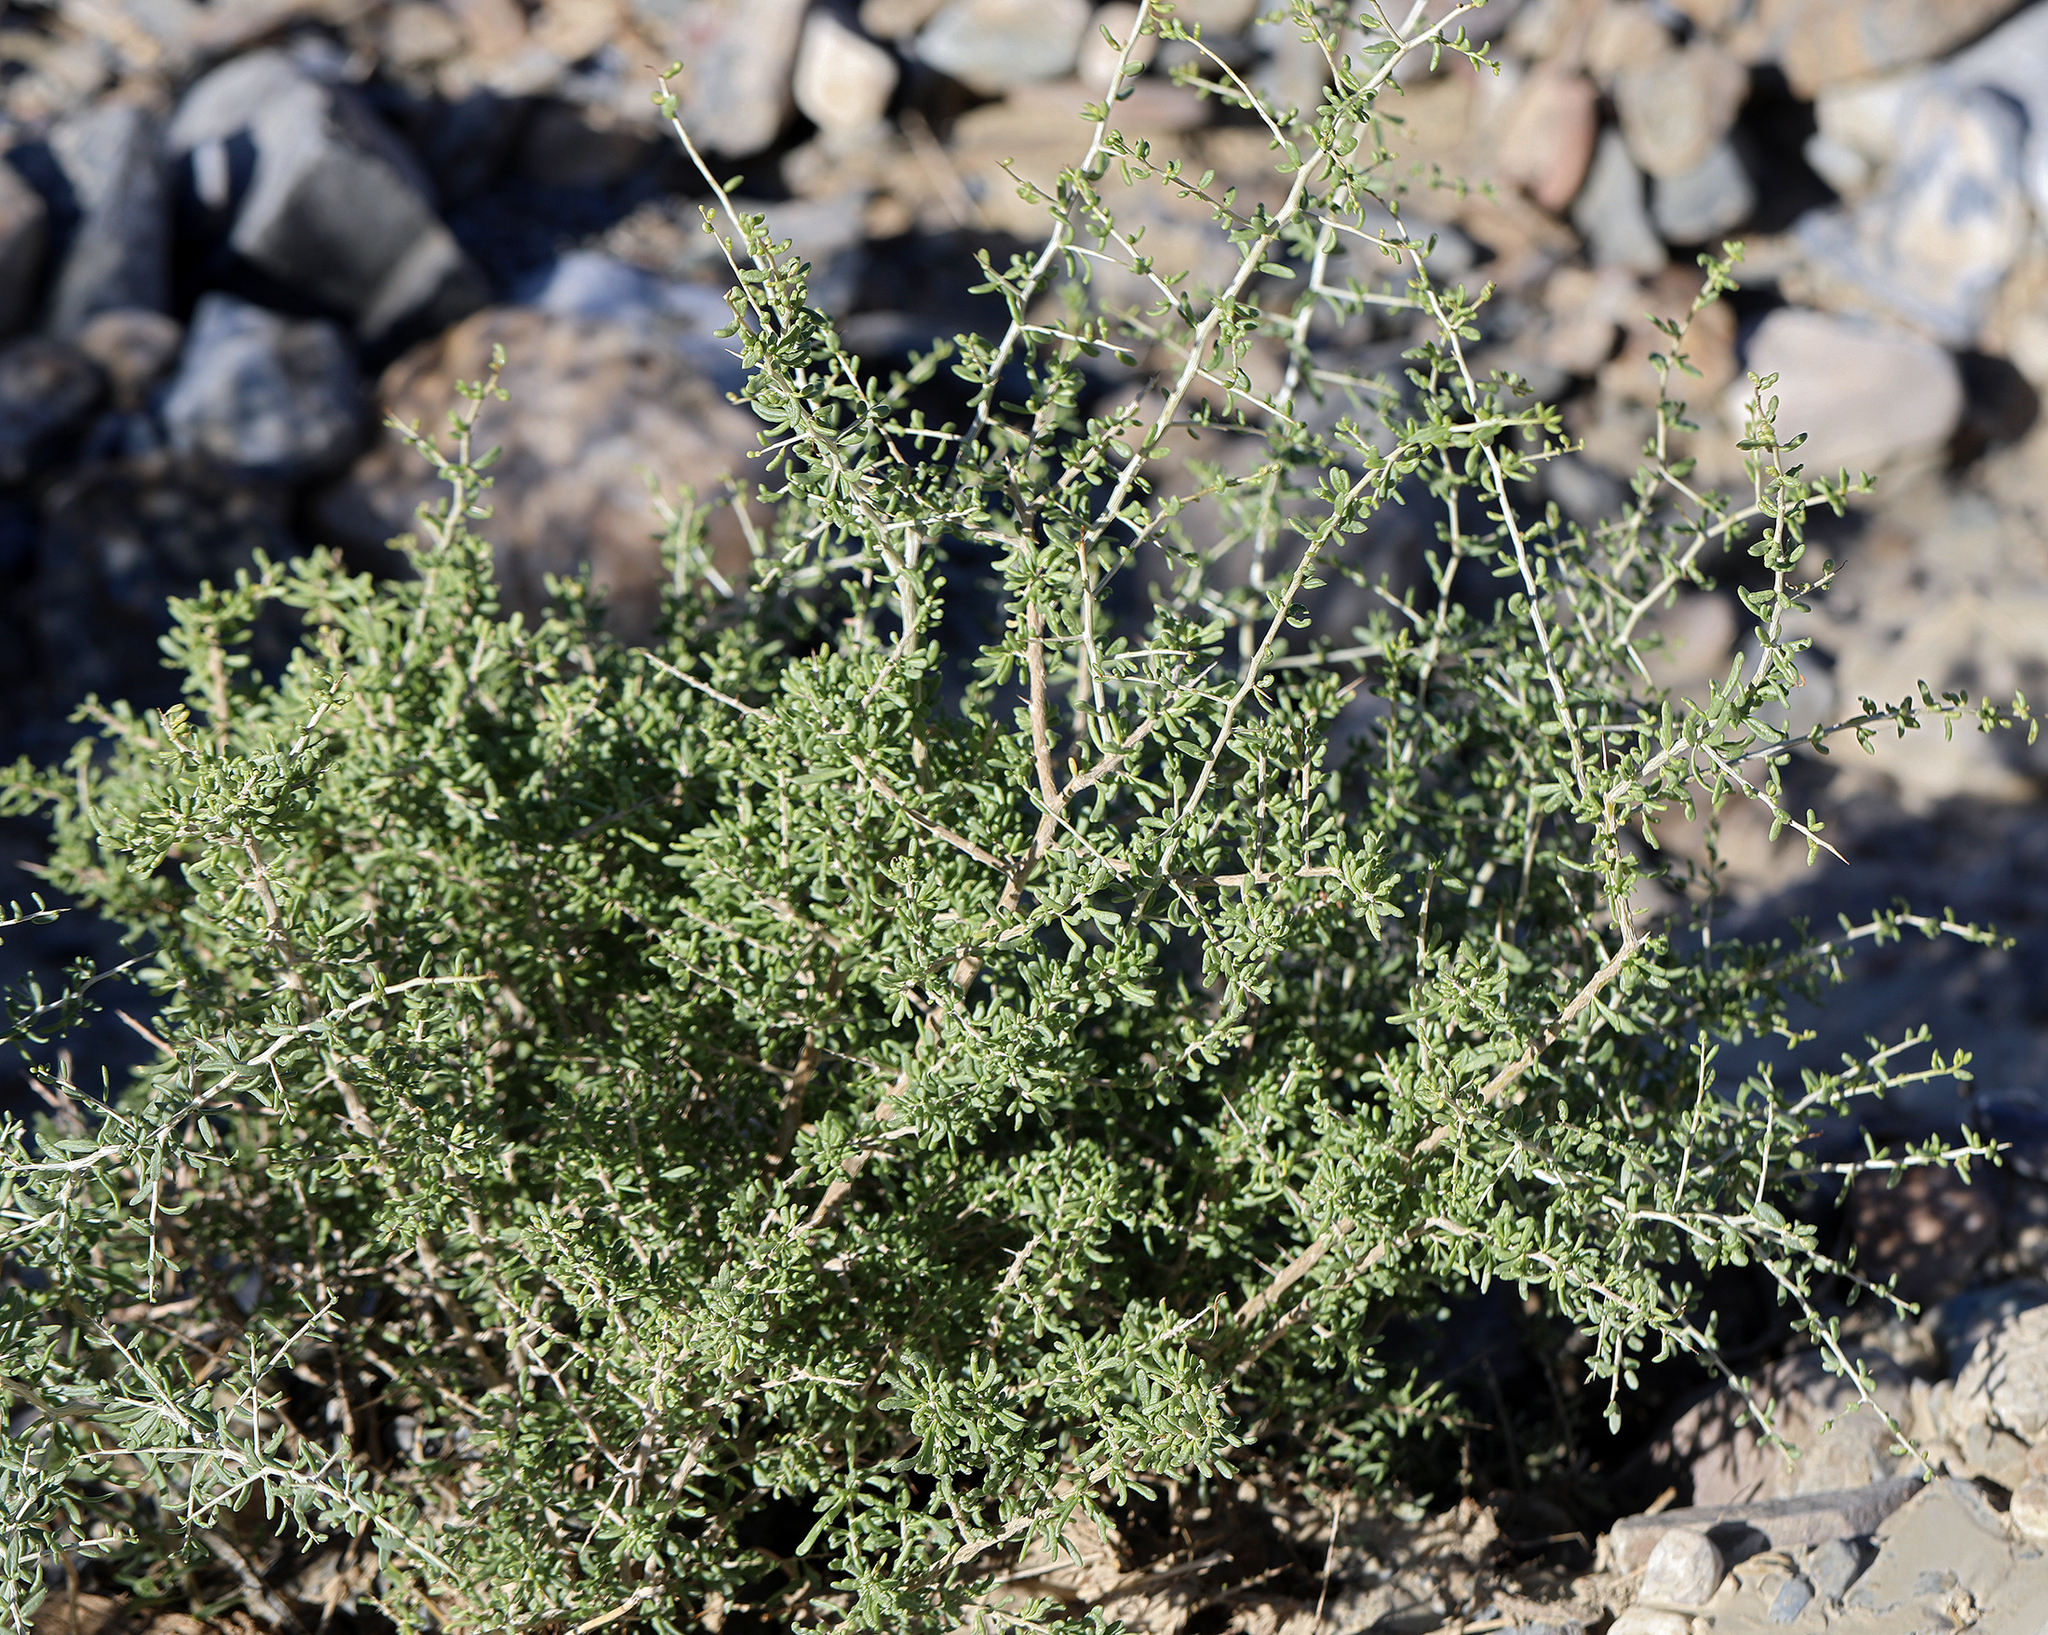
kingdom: Plantae
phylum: Tracheophyta
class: Magnoliopsida
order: Solanales
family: Solanaceae
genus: Lycium
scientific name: Lycium andersonii
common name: Water-jacket
